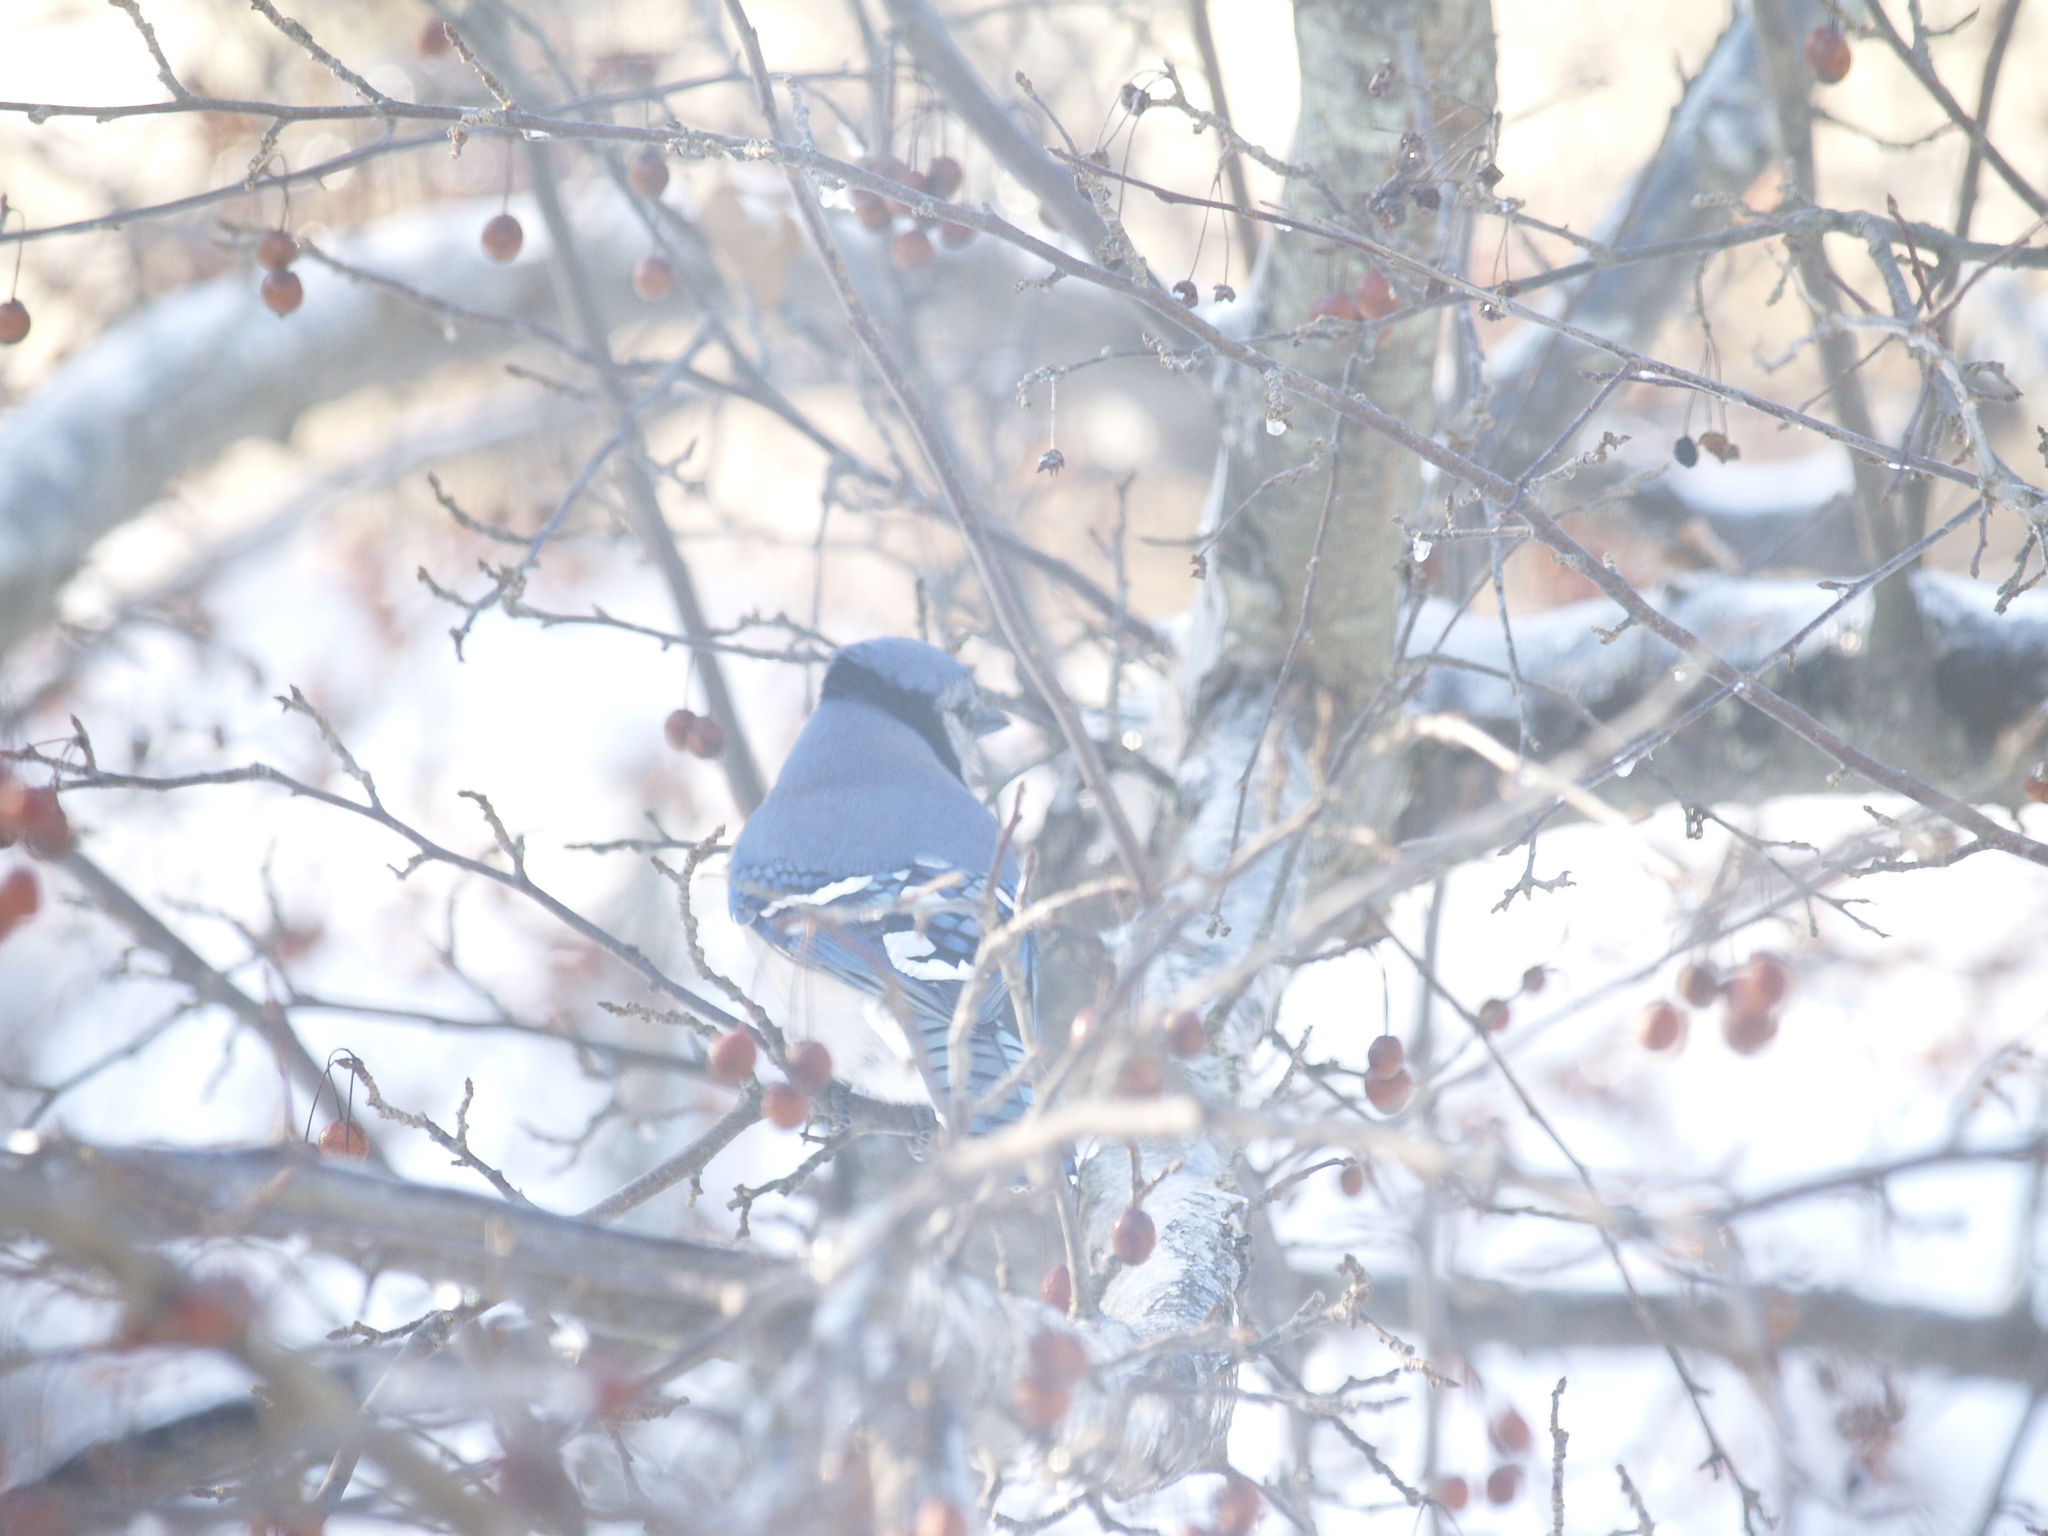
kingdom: Animalia
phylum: Chordata
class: Aves
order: Passeriformes
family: Corvidae
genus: Cyanocitta
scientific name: Cyanocitta cristata
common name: Blue jay
